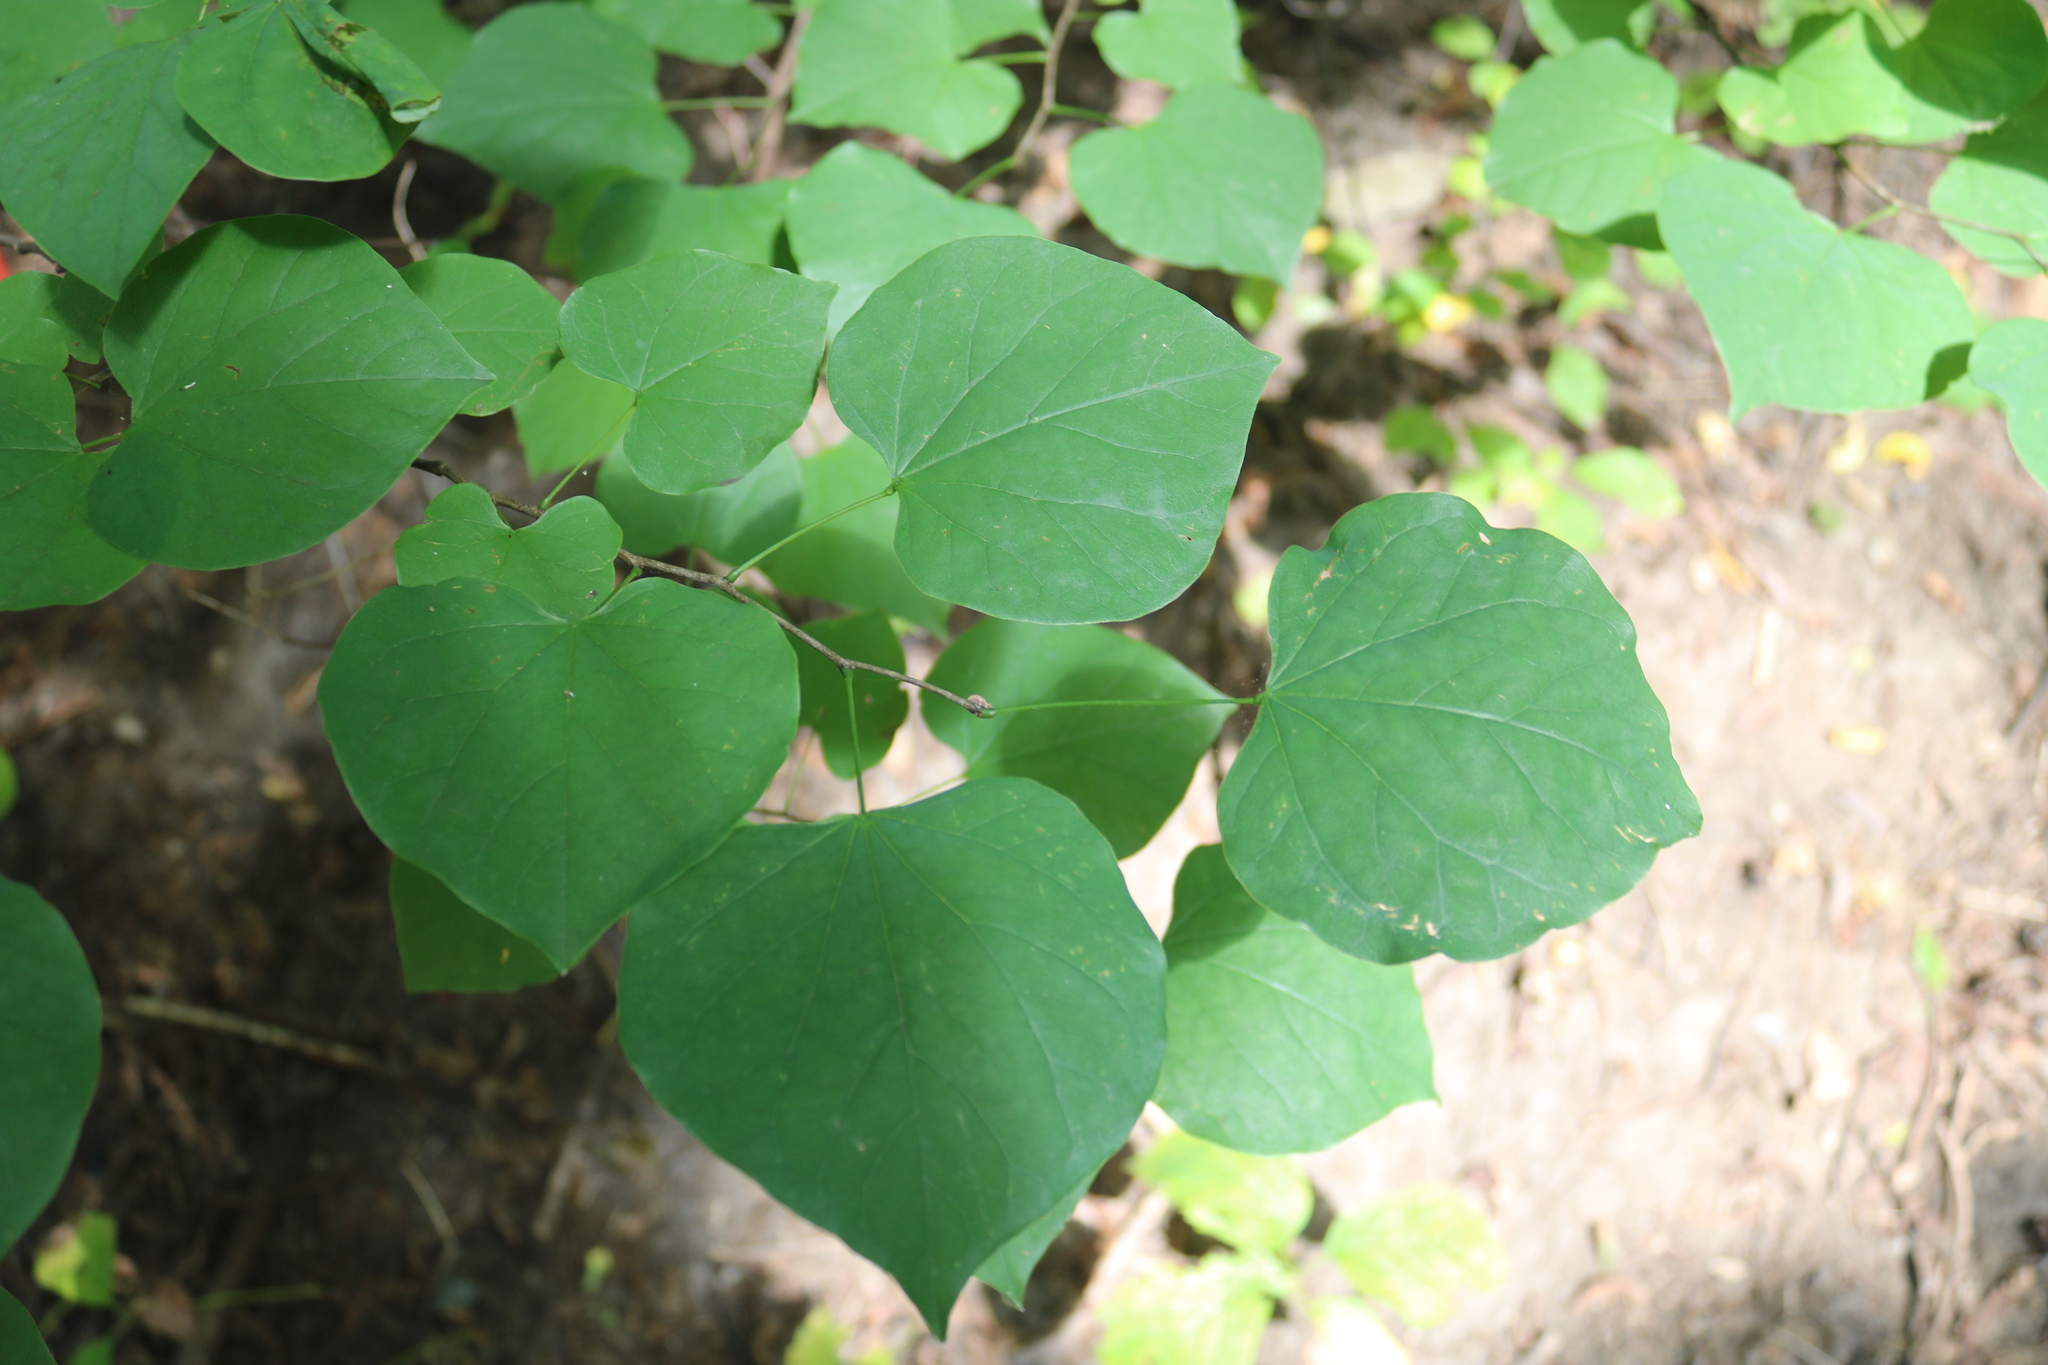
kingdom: Plantae
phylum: Tracheophyta
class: Magnoliopsida
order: Fabales
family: Fabaceae
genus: Cercis
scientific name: Cercis canadensis
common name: Eastern redbud
